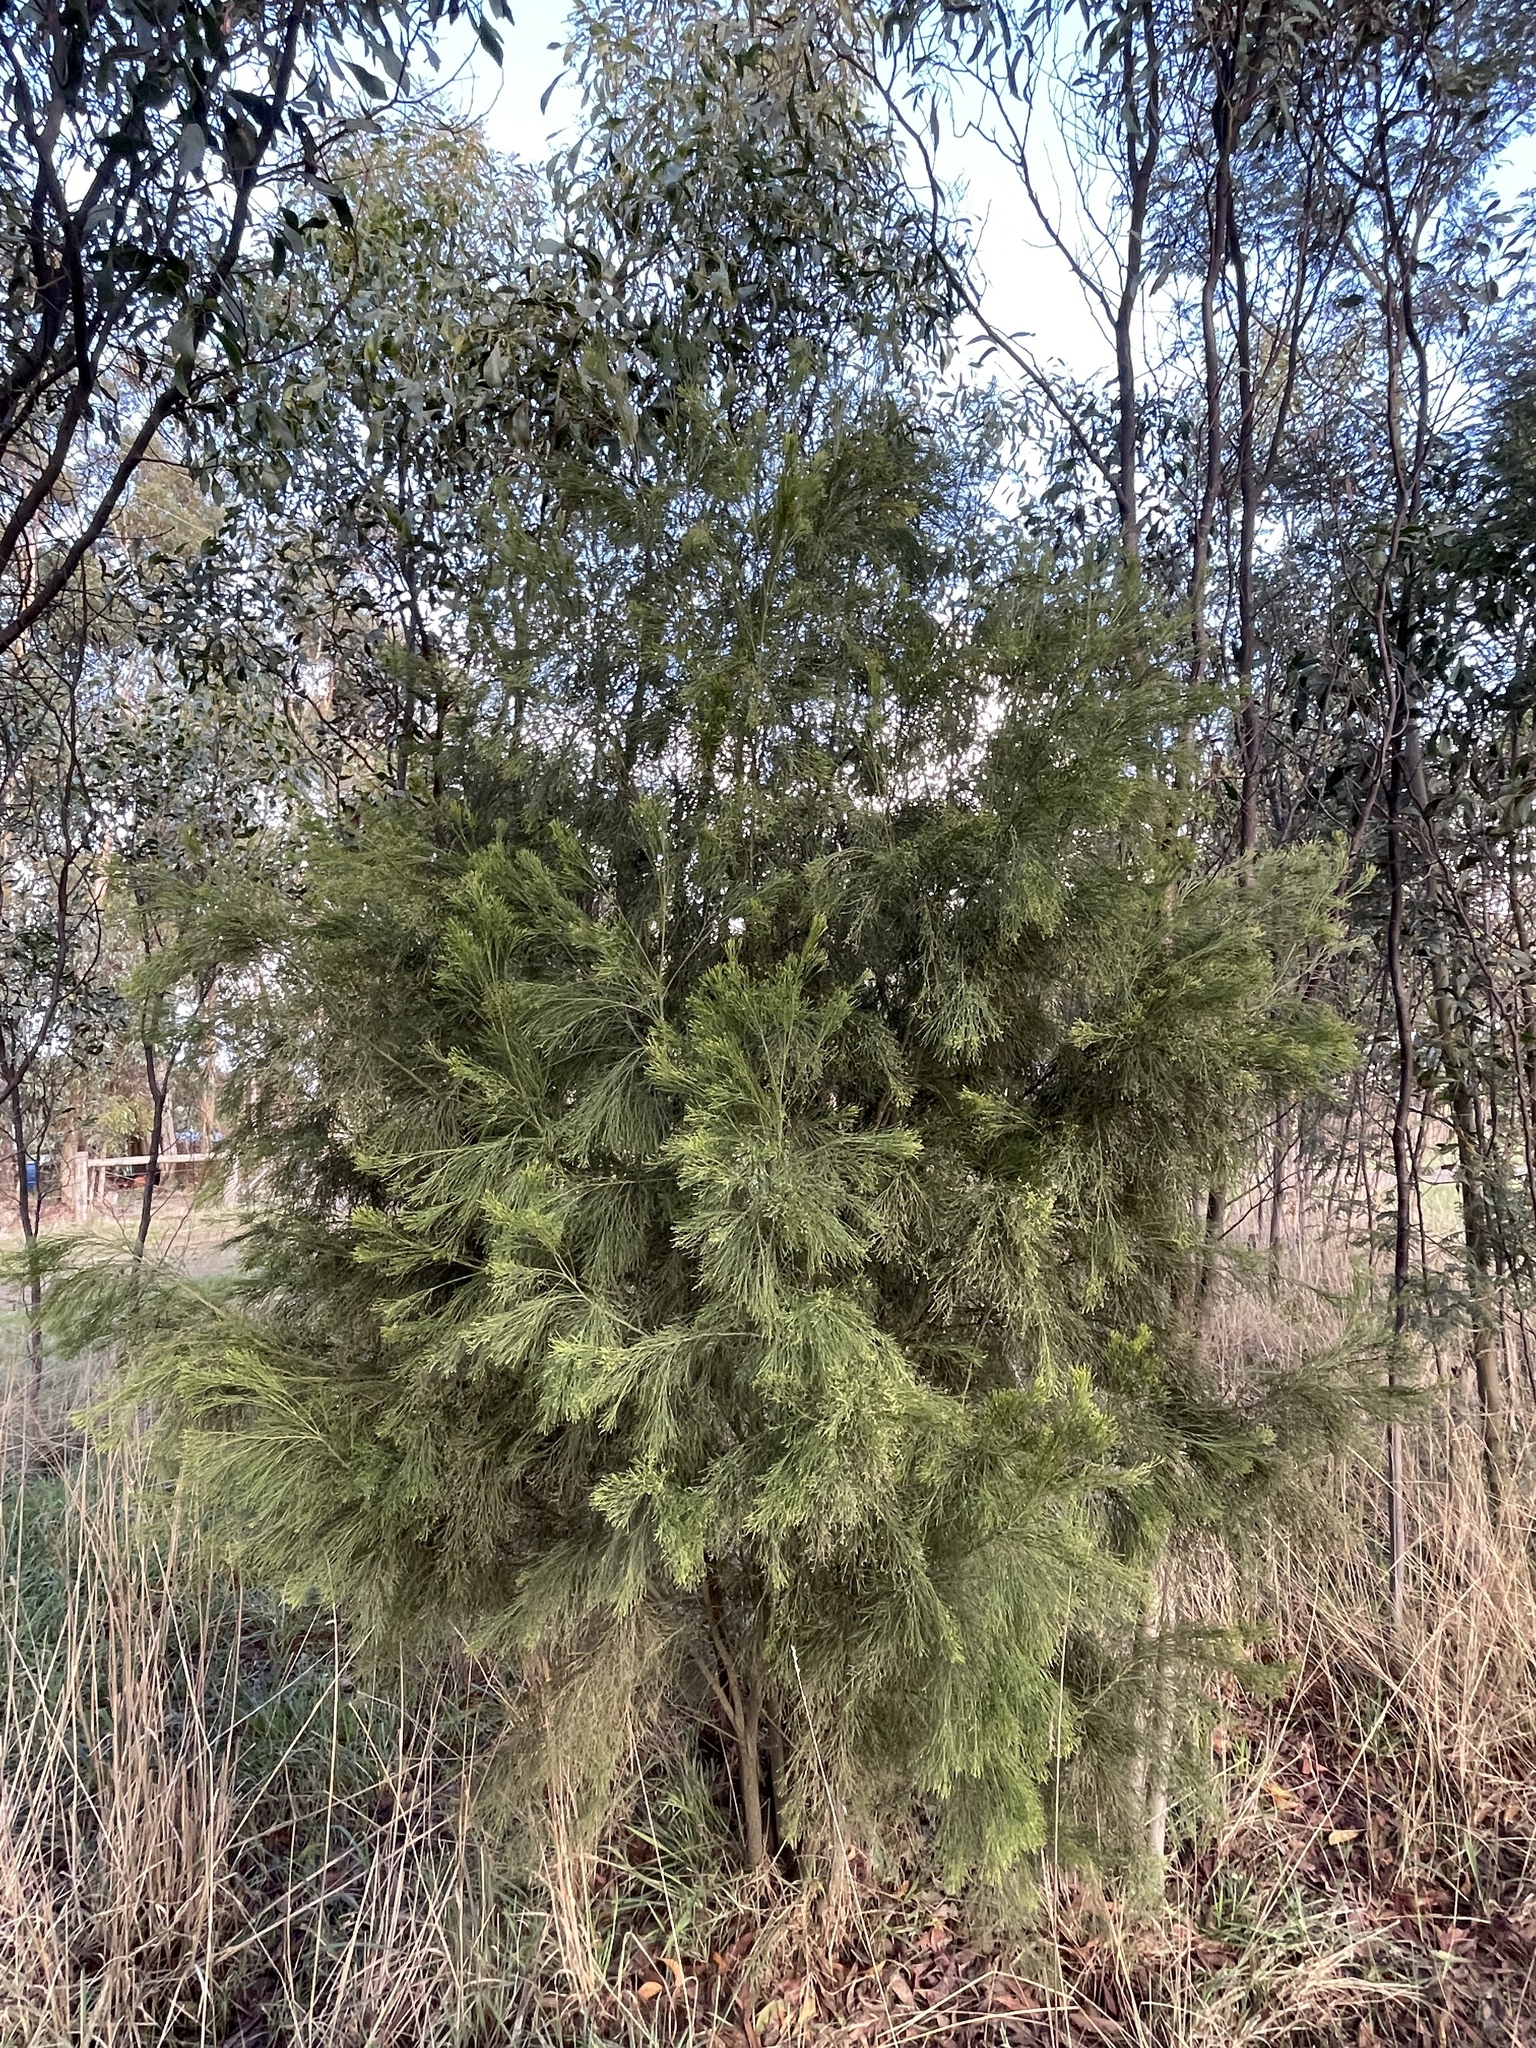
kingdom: Plantae
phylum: Tracheophyta
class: Magnoliopsida
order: Santalales
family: Santalaceae
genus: Exocarpos
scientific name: Exocarpos cupressiformis
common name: Cherry ballart
